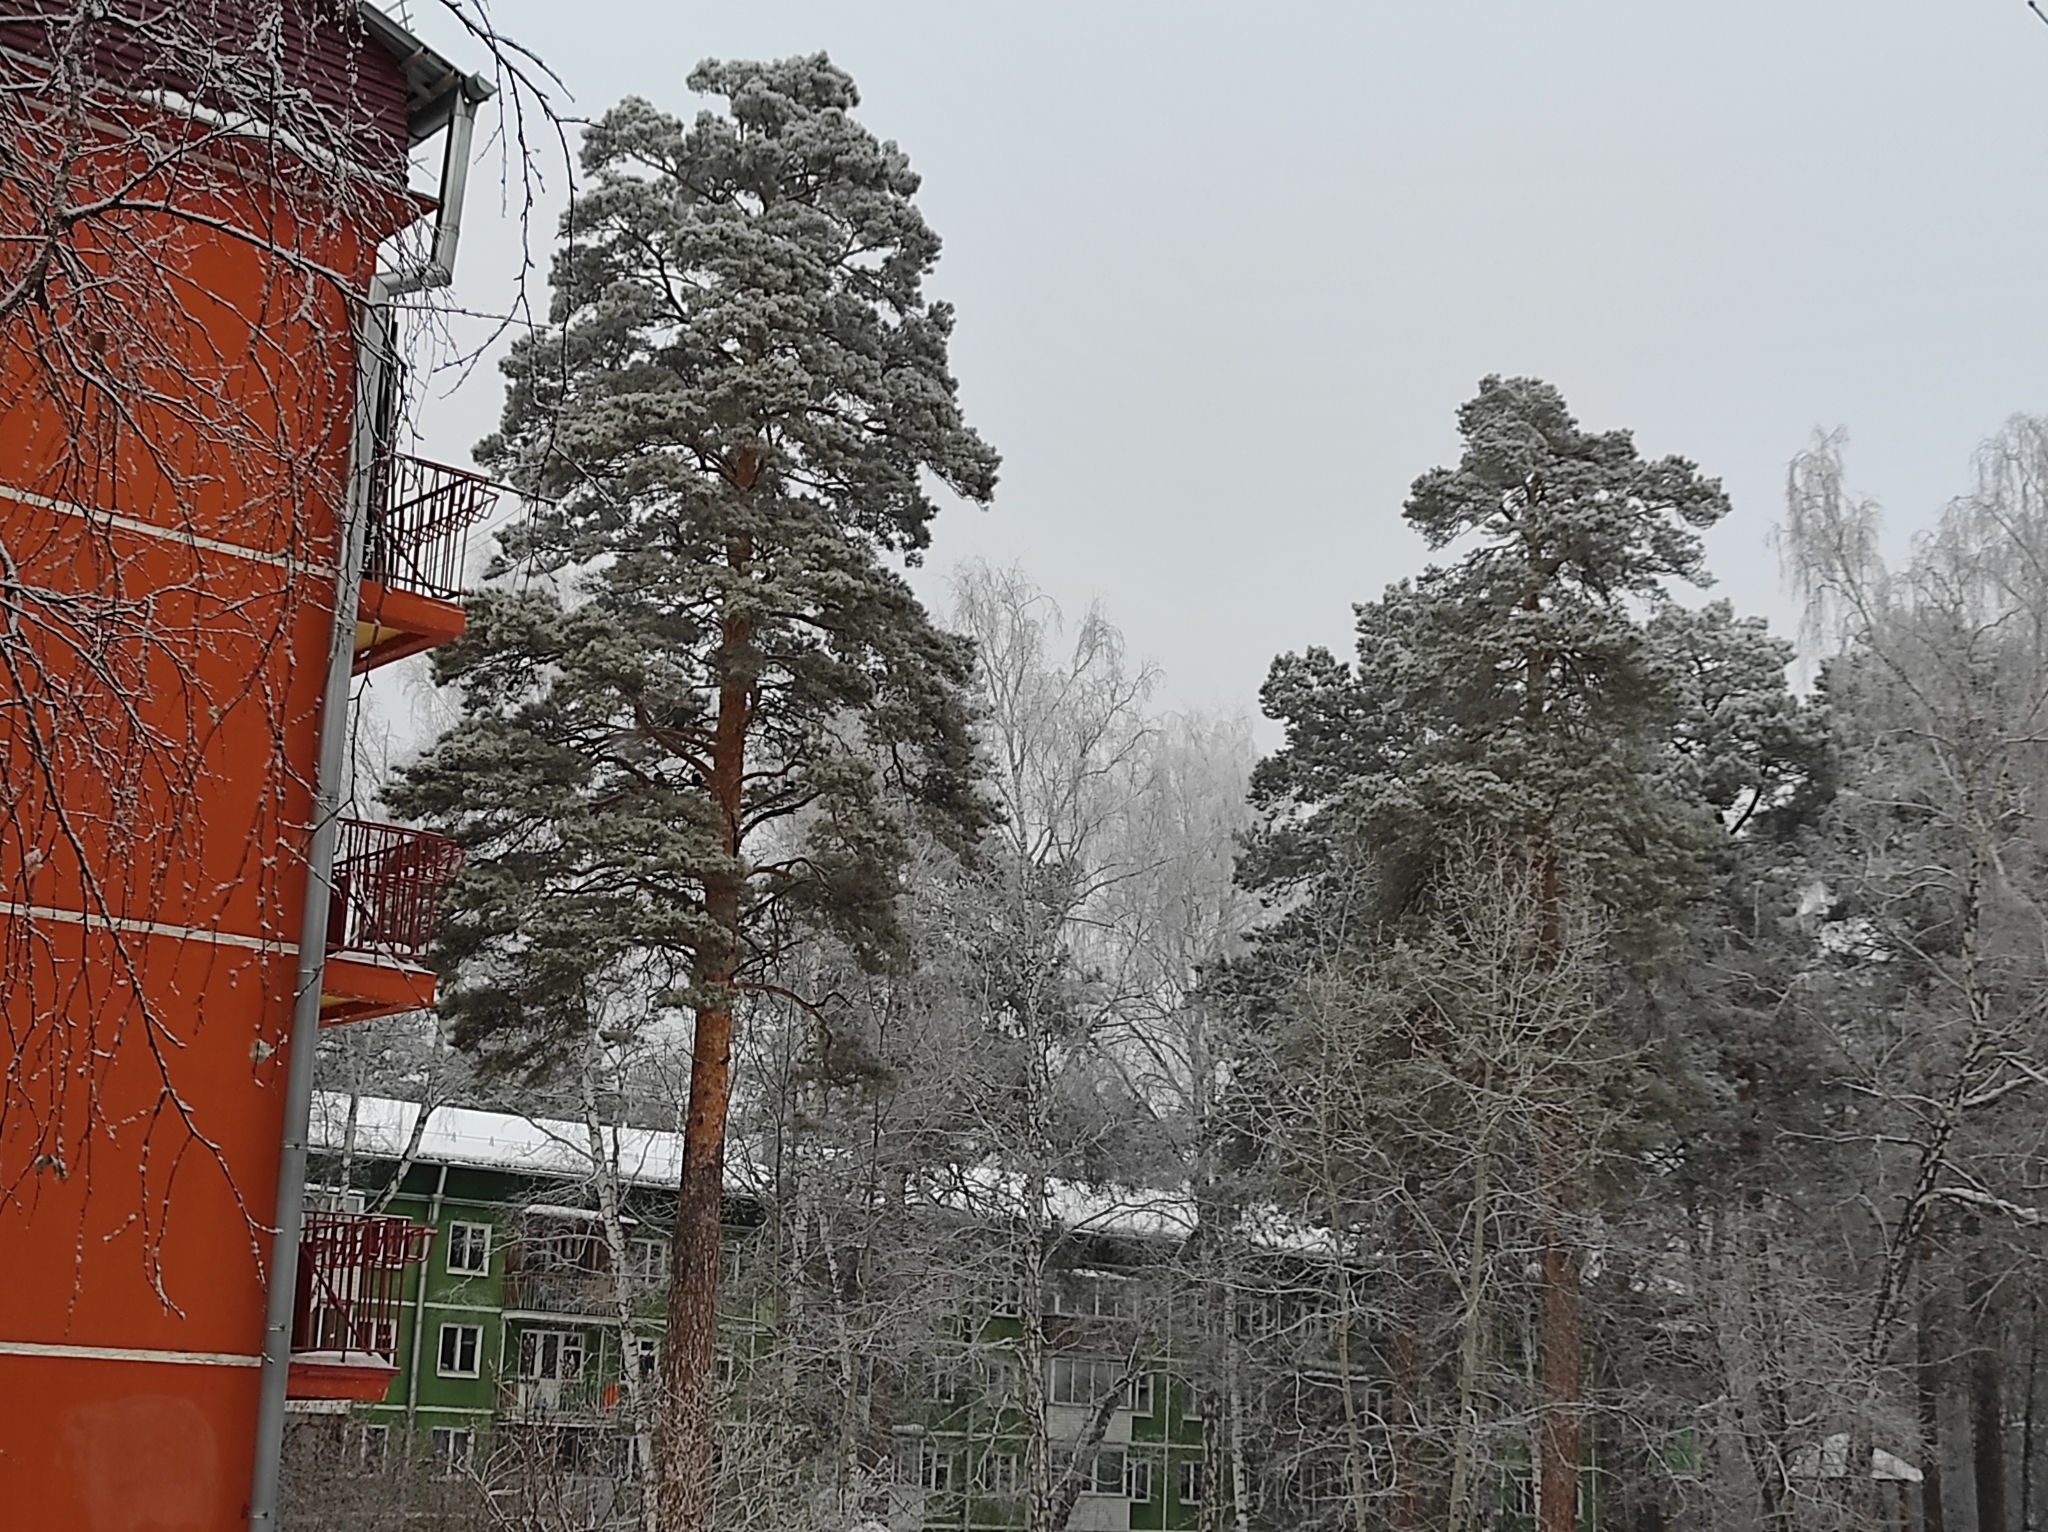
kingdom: Plantae
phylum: Tracheophyta
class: Pinopsida
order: Pinales
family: Pinaceae
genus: Pinus
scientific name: Pinus sylvestris
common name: Scots pine
